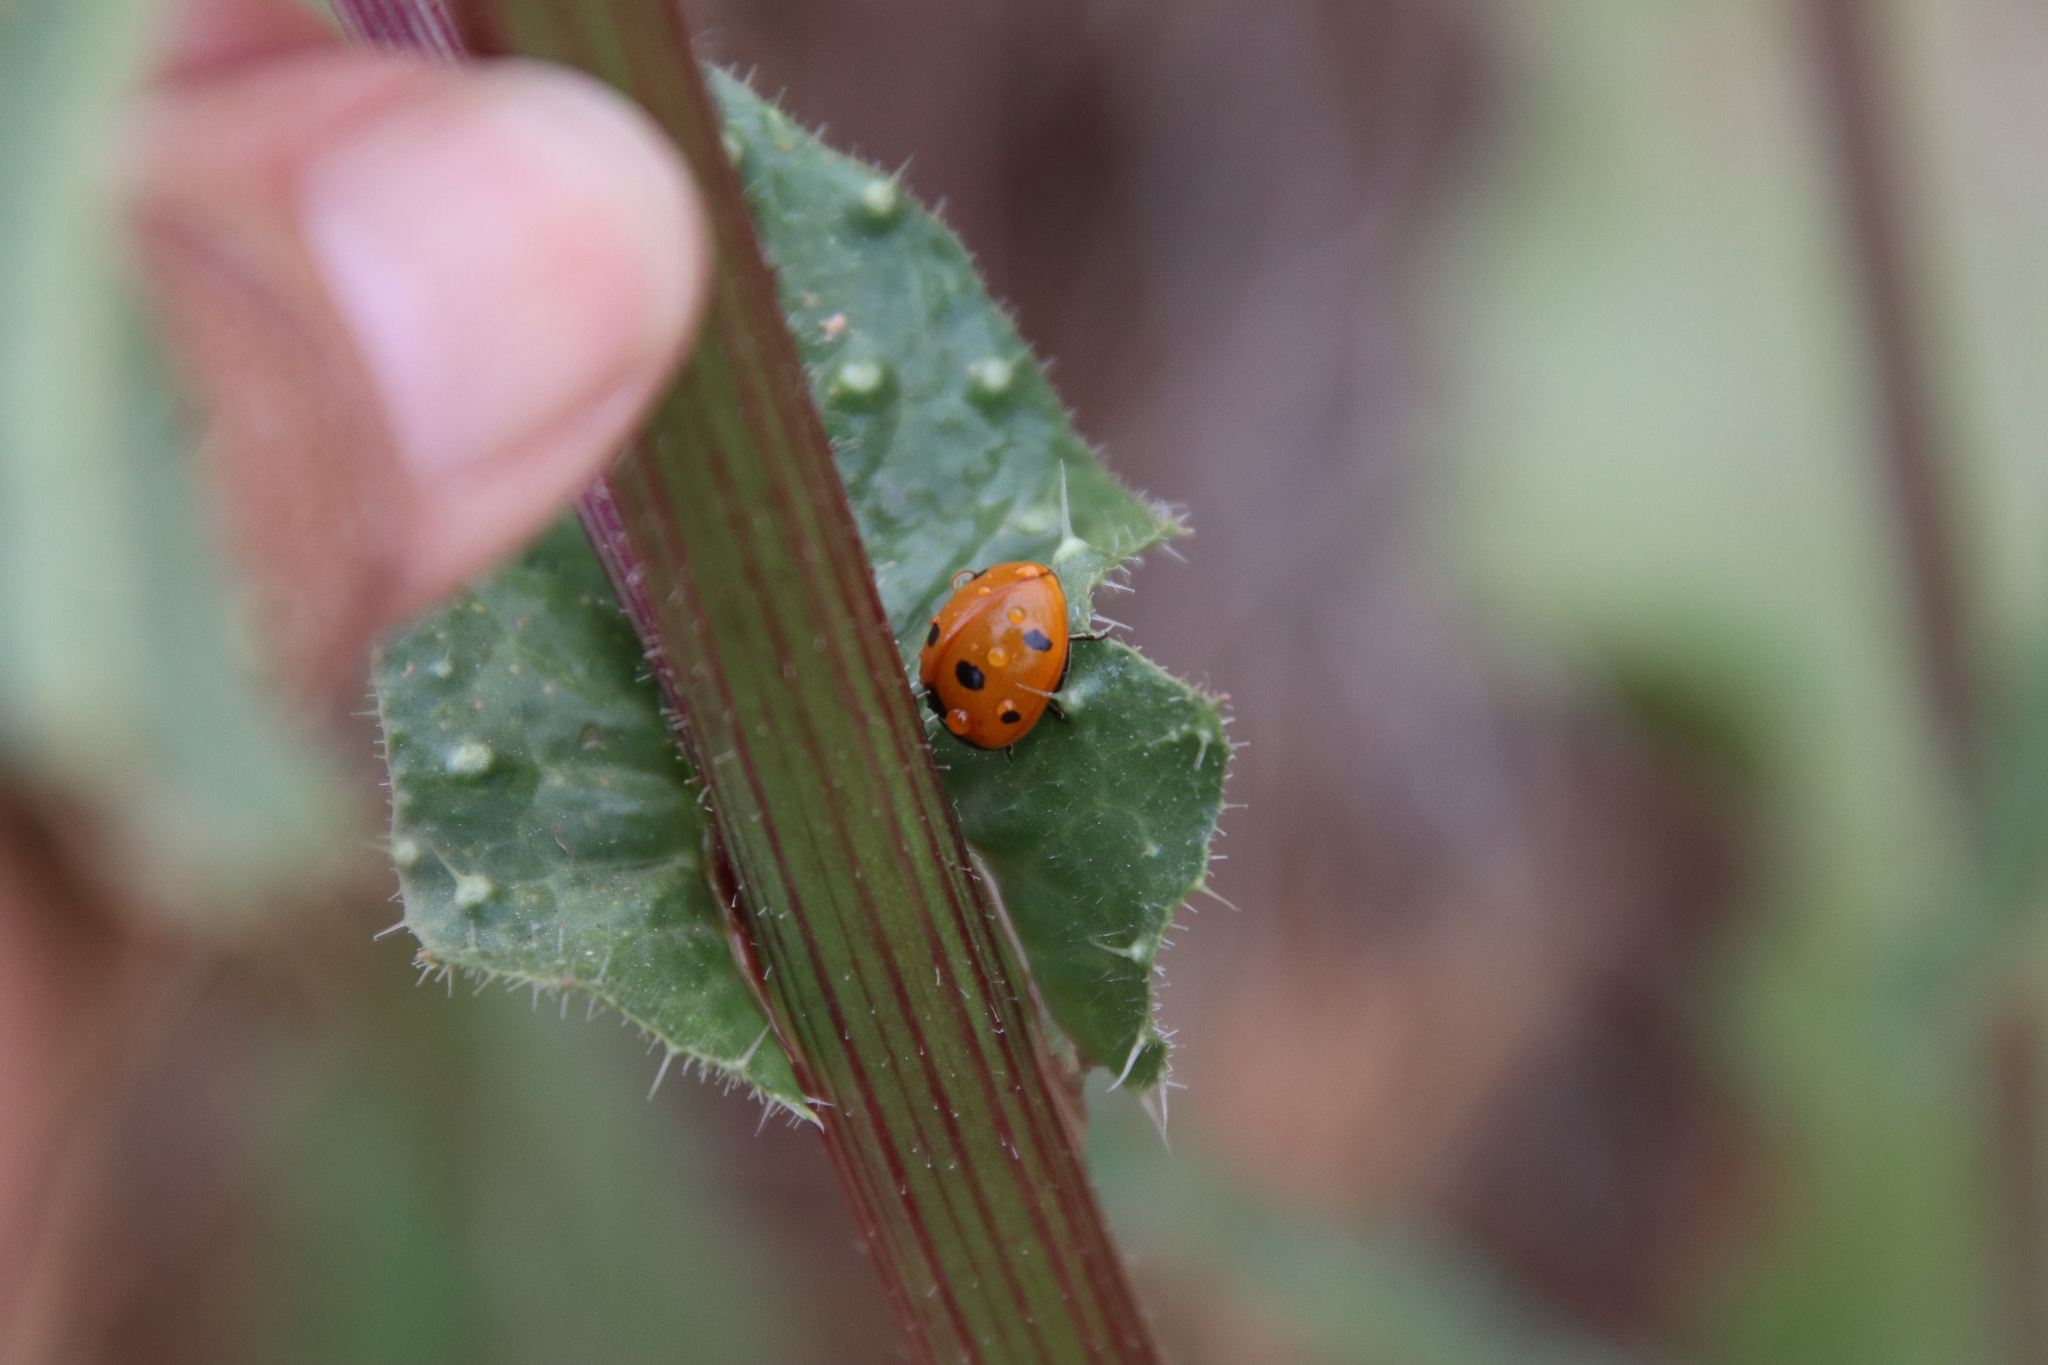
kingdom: Animalia
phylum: Arthropoda
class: Insecta
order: Coleoptera
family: Coccinellidae
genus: Coccinella
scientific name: Coccinella septempunctata
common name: Sevenspotted lady beetle
